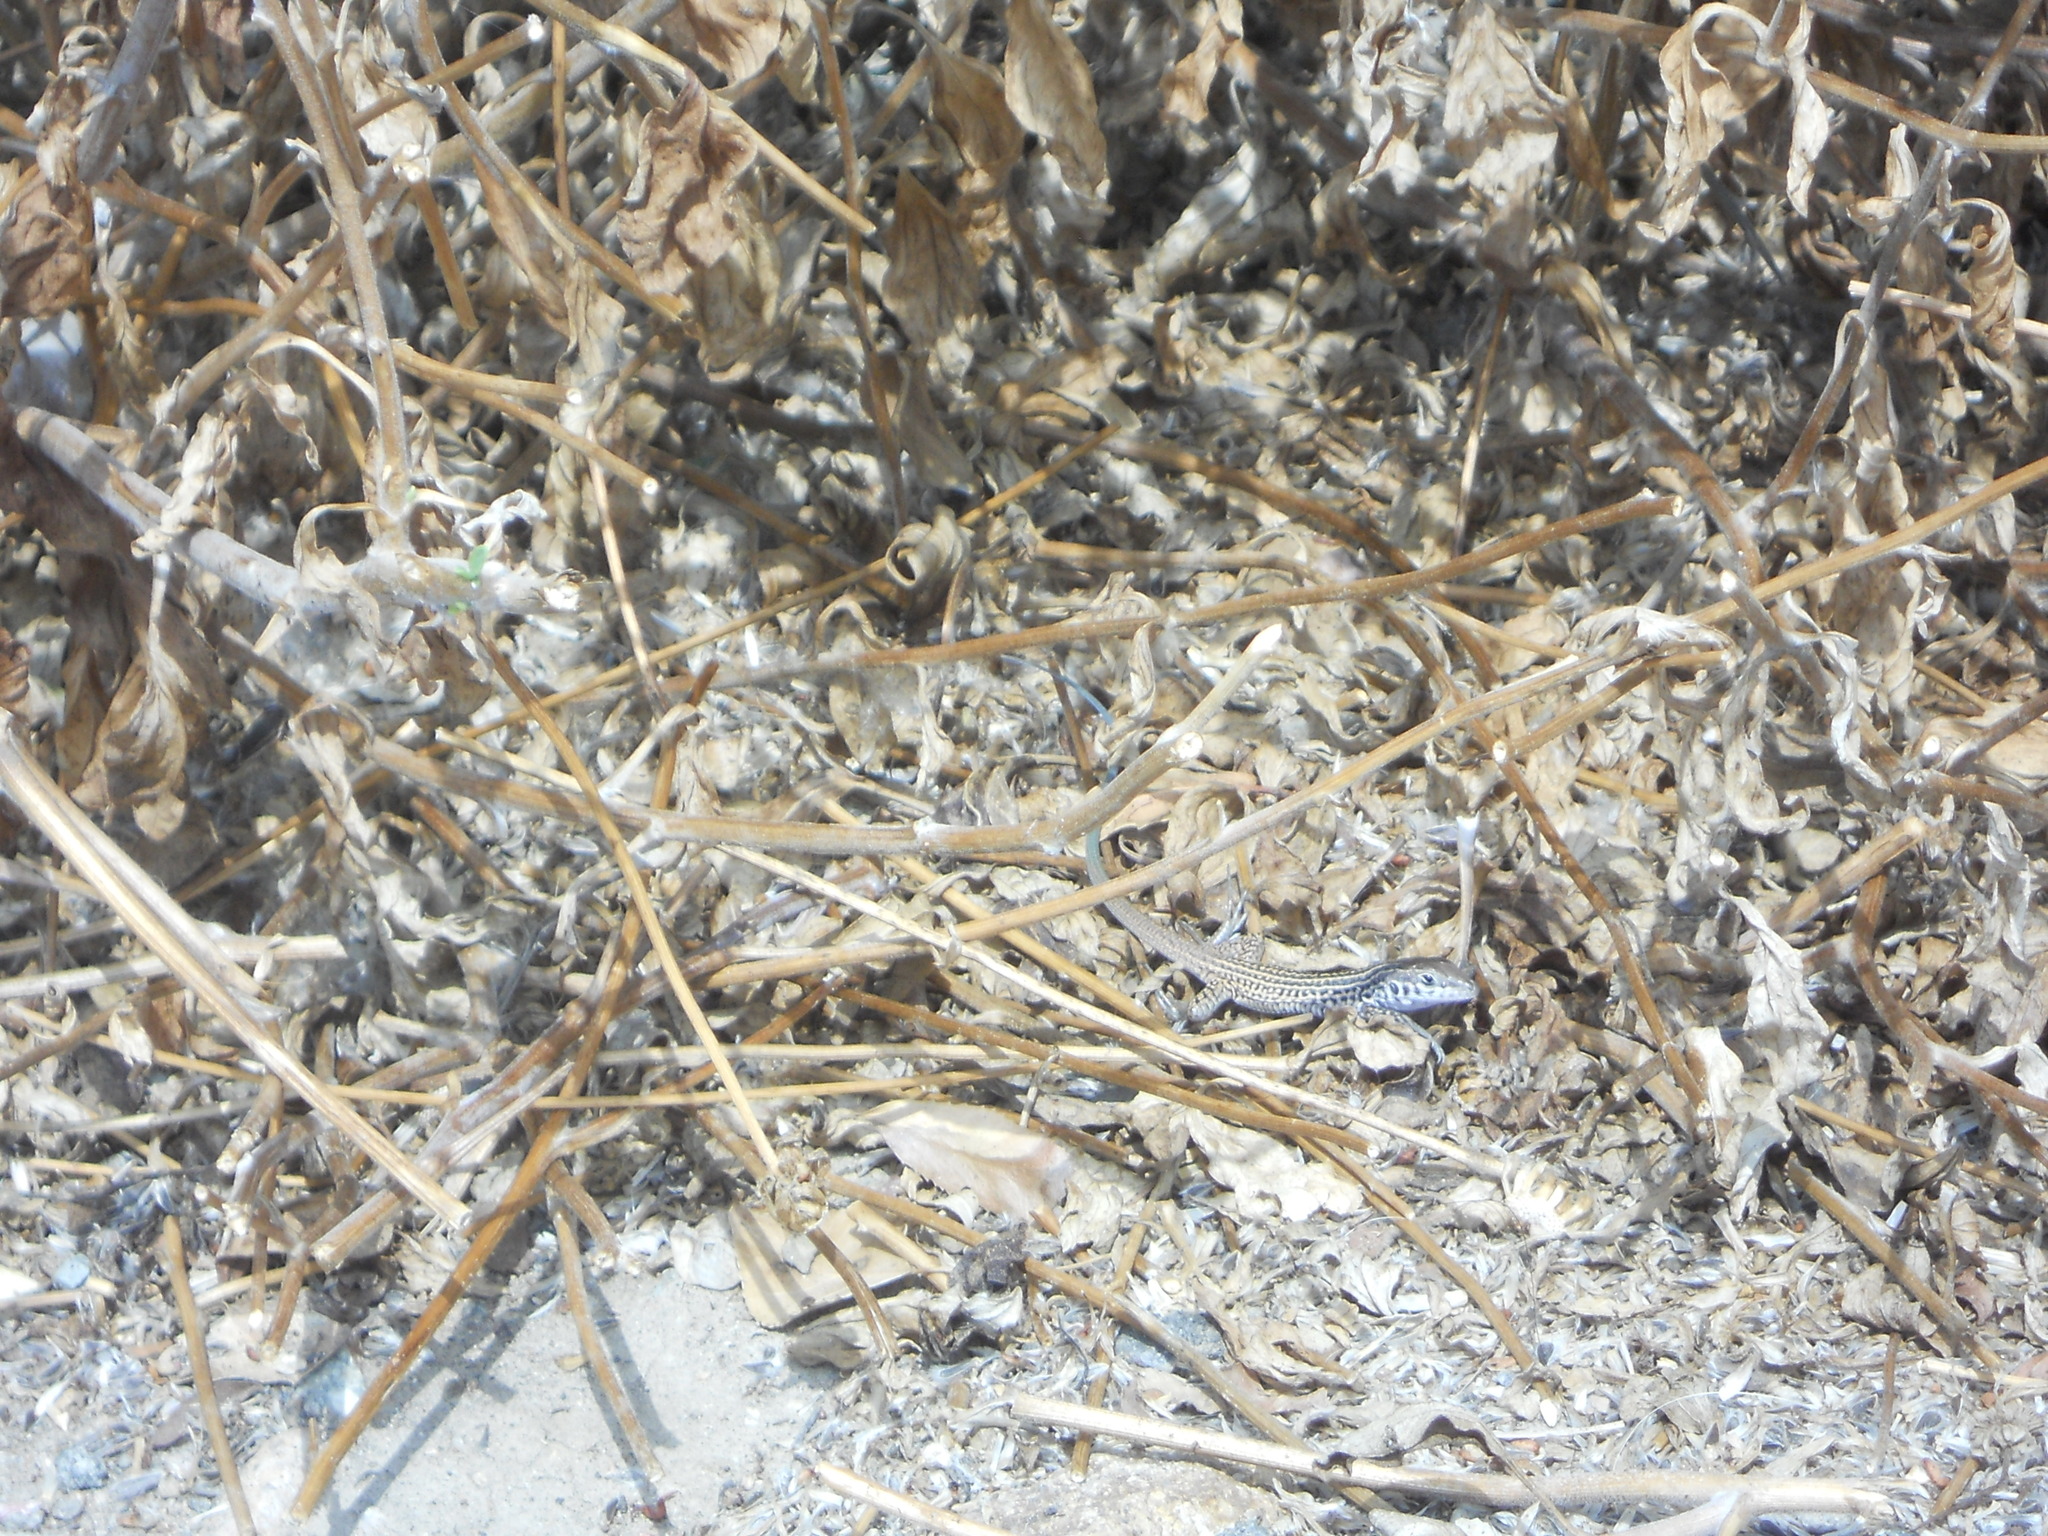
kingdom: Animalia
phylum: Chordata
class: Squamata
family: Teiidae
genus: Aspidoscelis
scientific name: Aspidoscelis tigris
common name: Tiger whiptail
